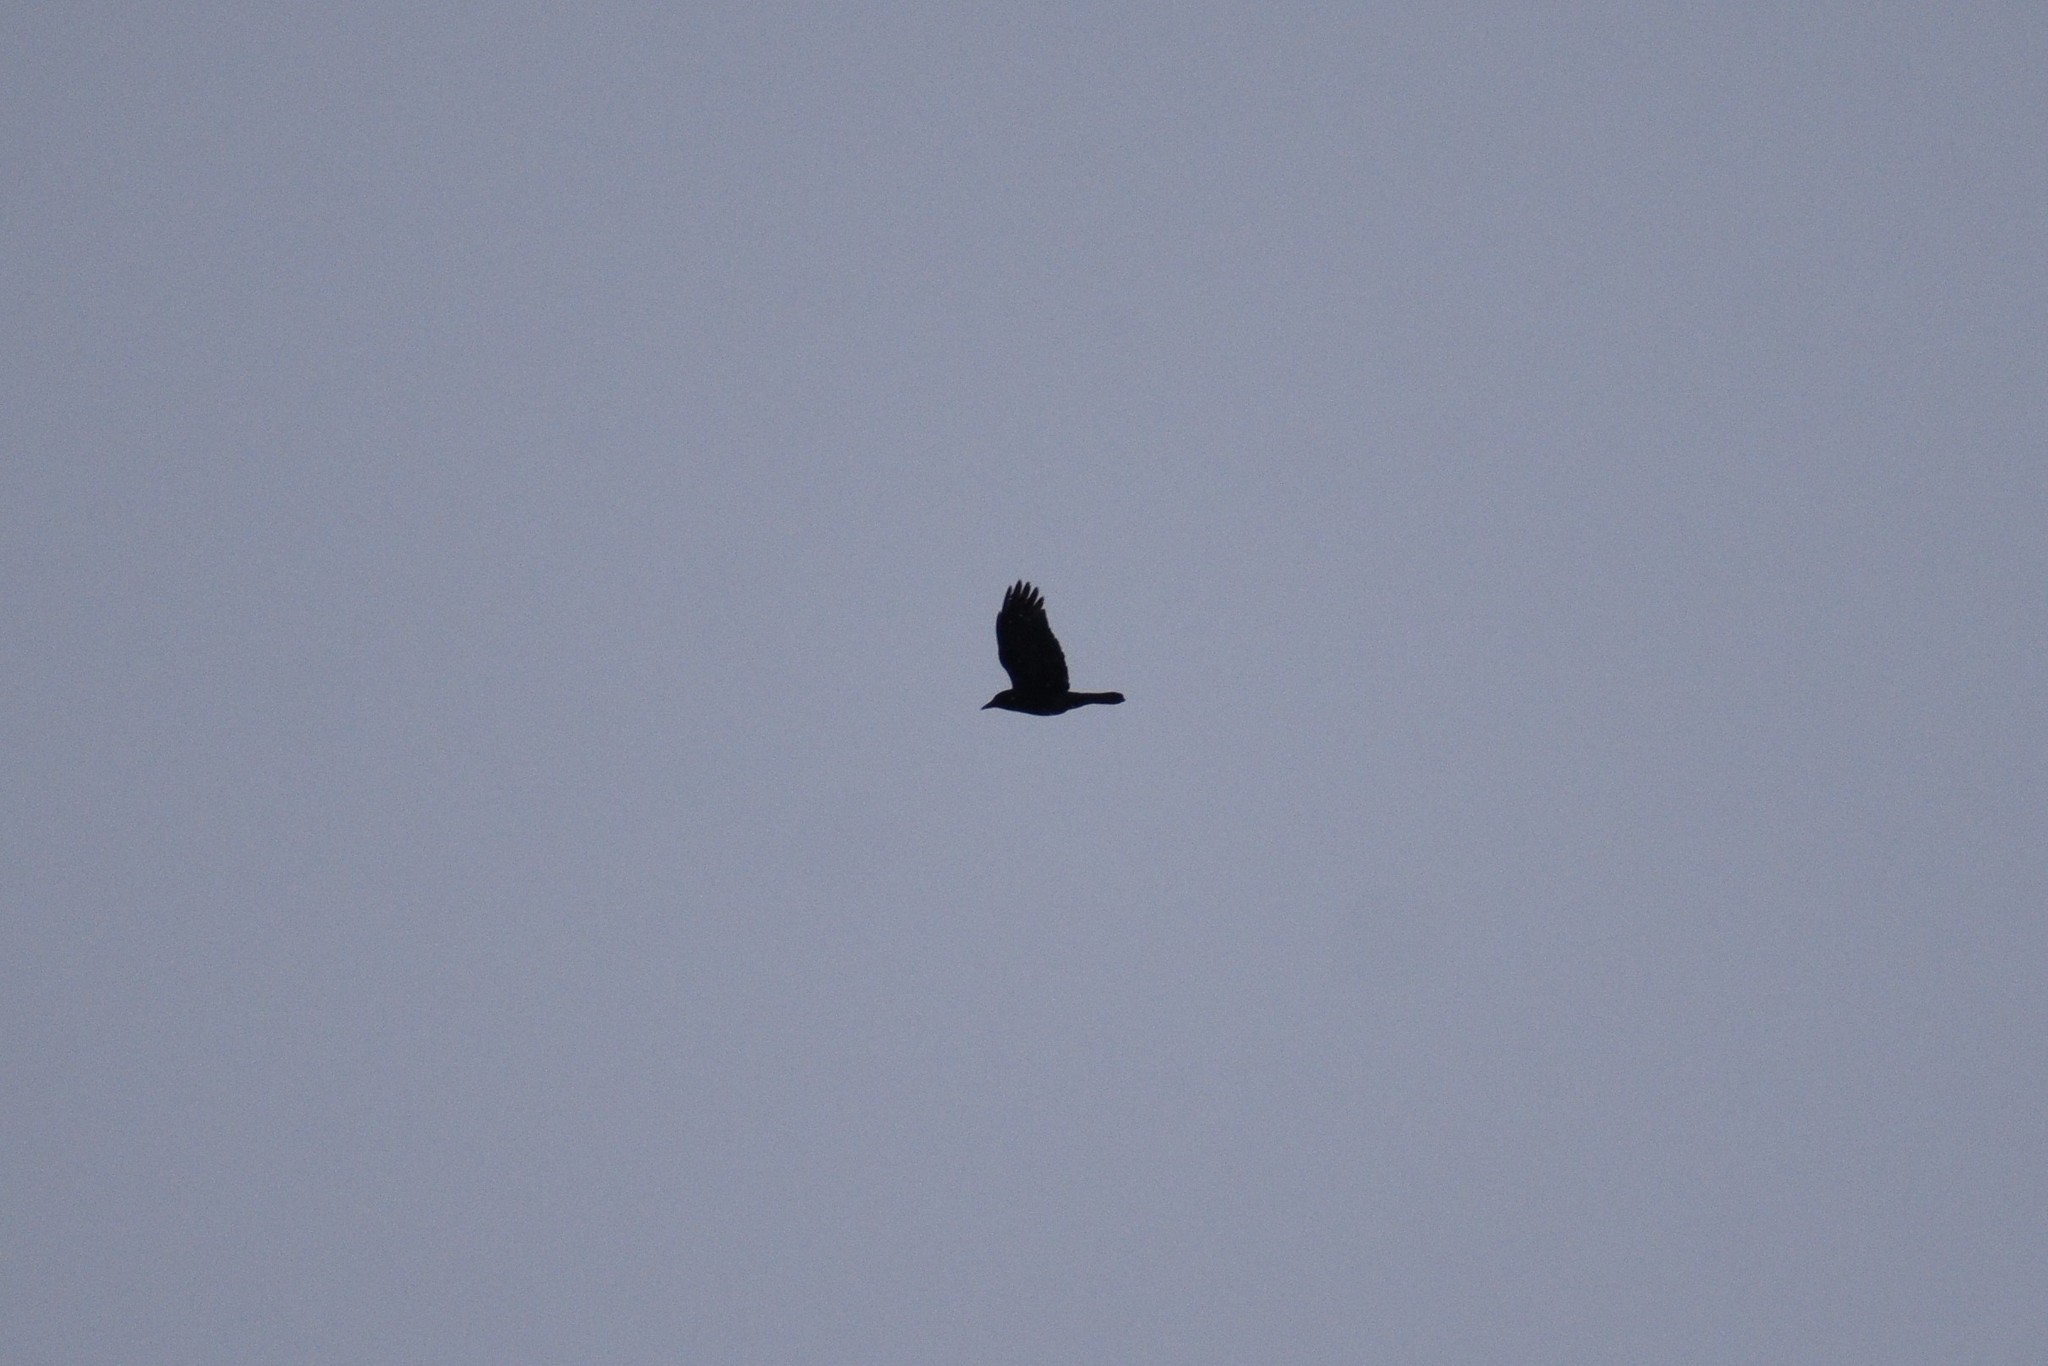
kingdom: Animalia
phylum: Chordata
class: Aves
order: Passeriformes
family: Corvidae
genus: Corvus
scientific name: Corvus brachyrhynchos
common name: American crow
